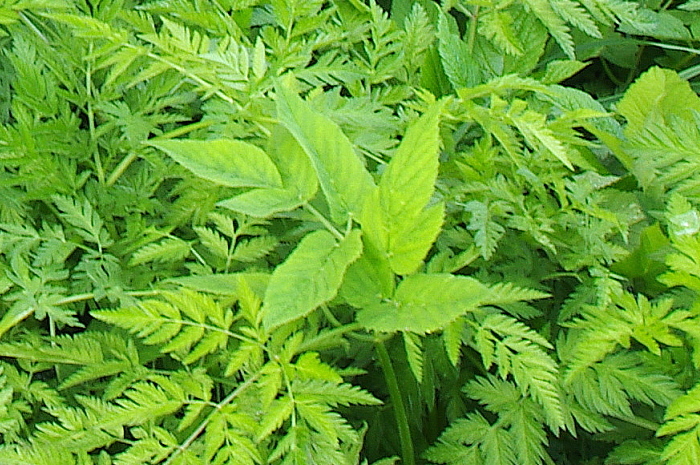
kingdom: Plantae
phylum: Tracheophyta
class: Magnoliopsida
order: Apiales
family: Apiaceae
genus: Aegopodium
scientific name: Aegopodium podagraria
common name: Ground-elder
